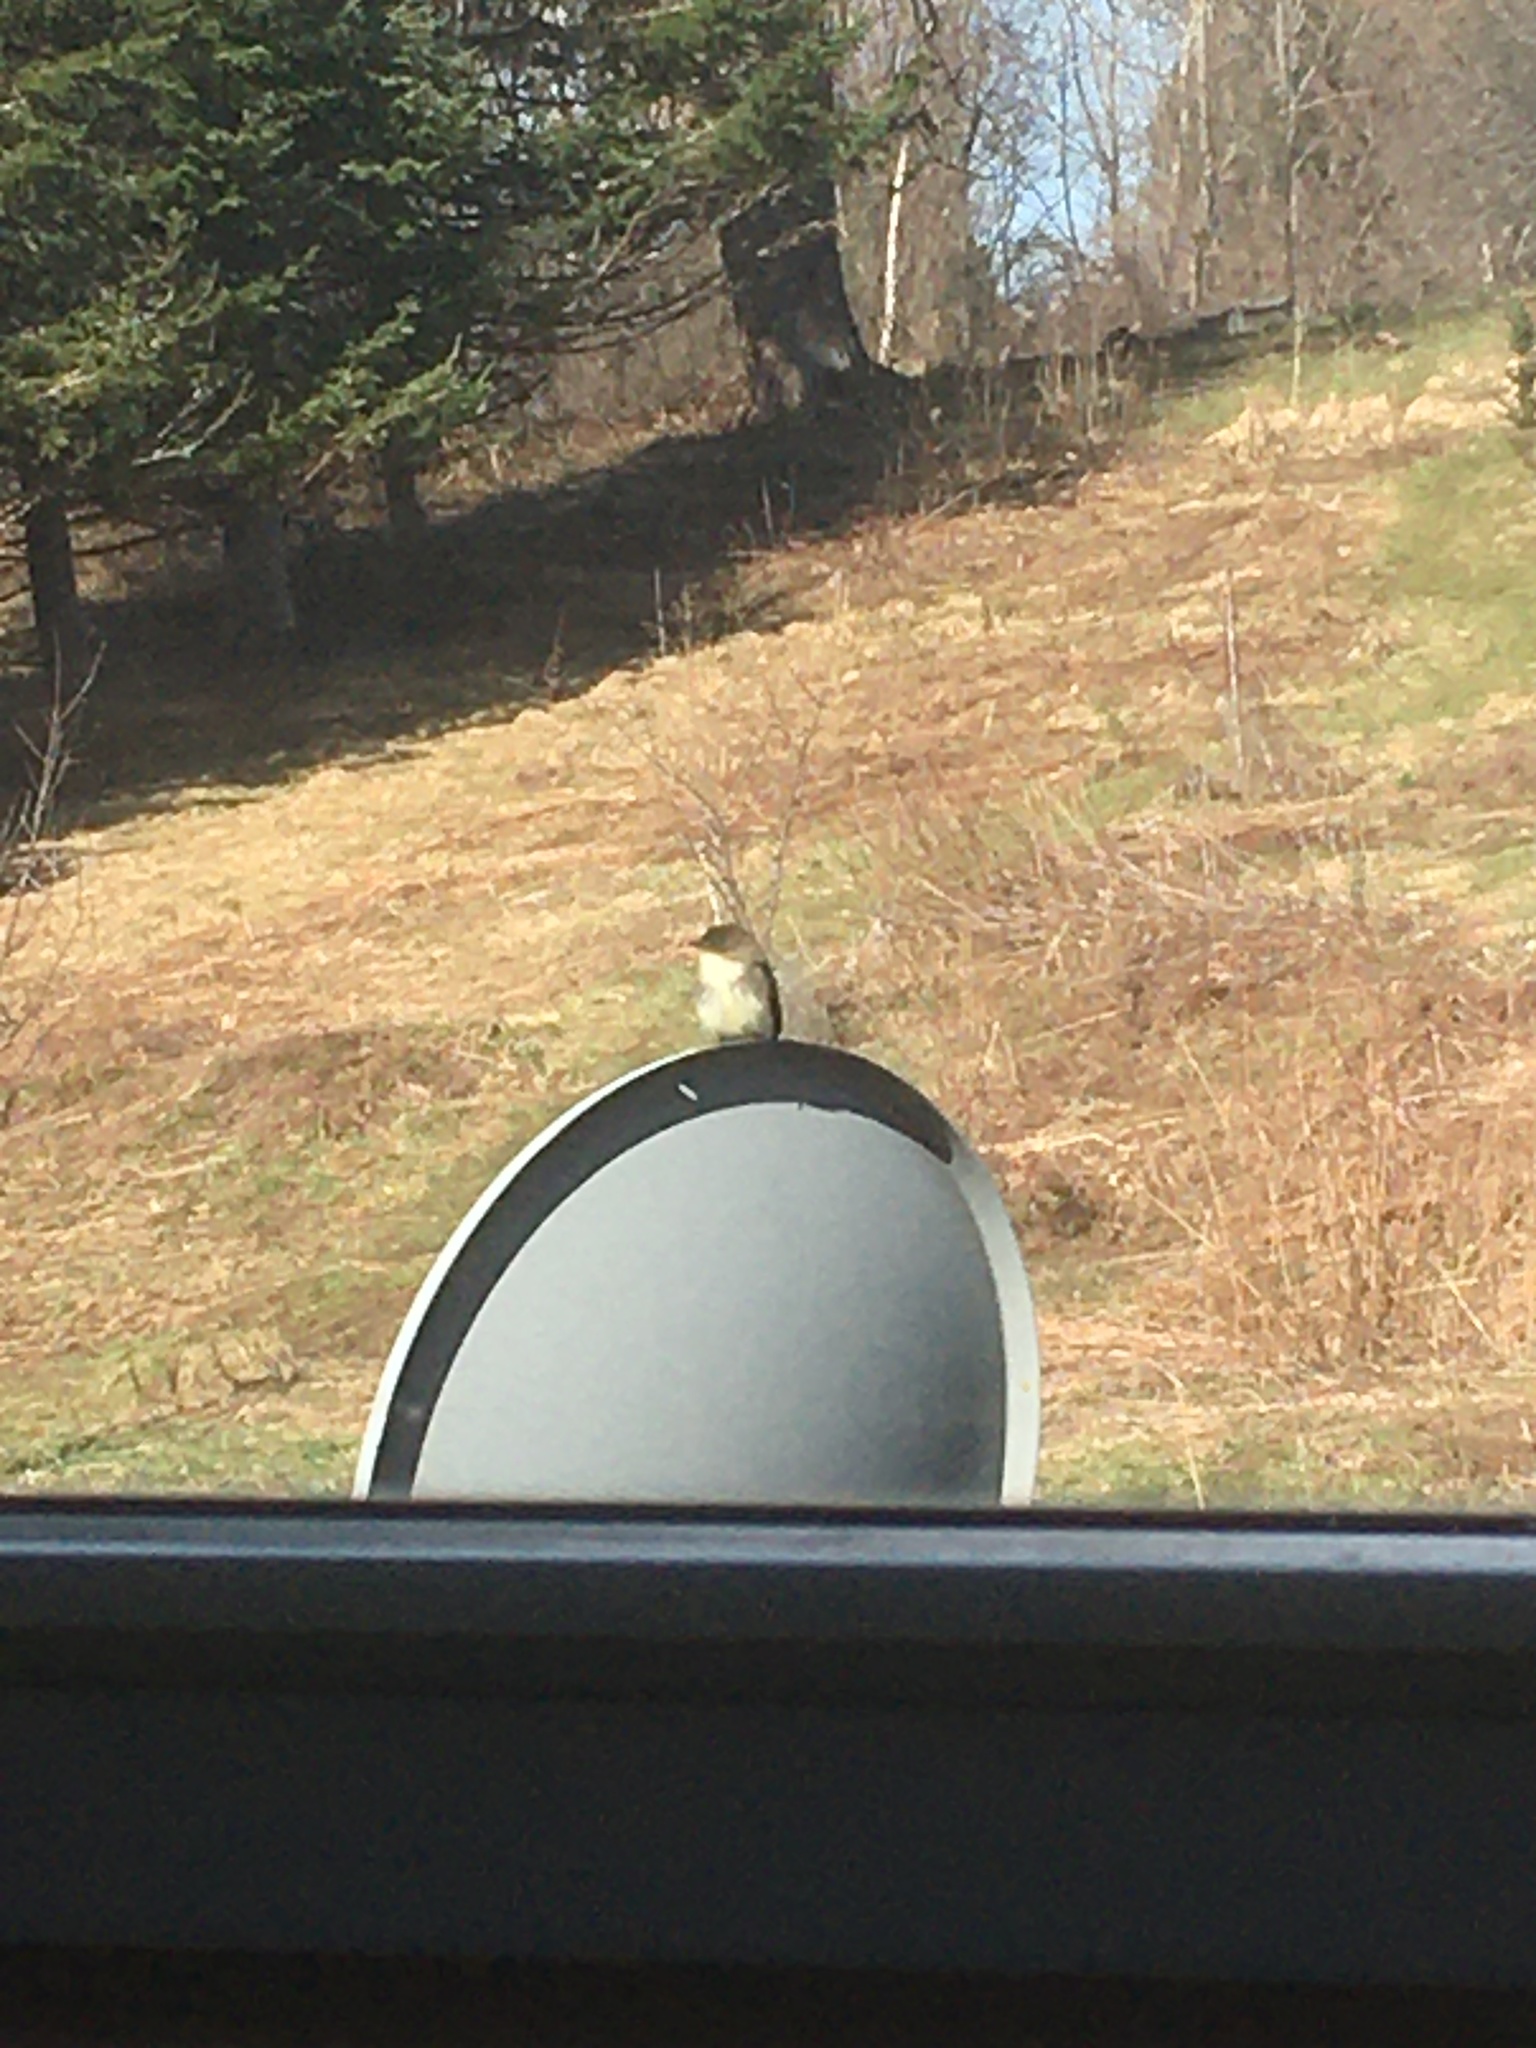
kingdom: Animalia
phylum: Chordata
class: Aves
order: Passeriformes
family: Tyrannidae
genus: Sayornis
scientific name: Sayornis phoebe
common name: Eastern phoebe
